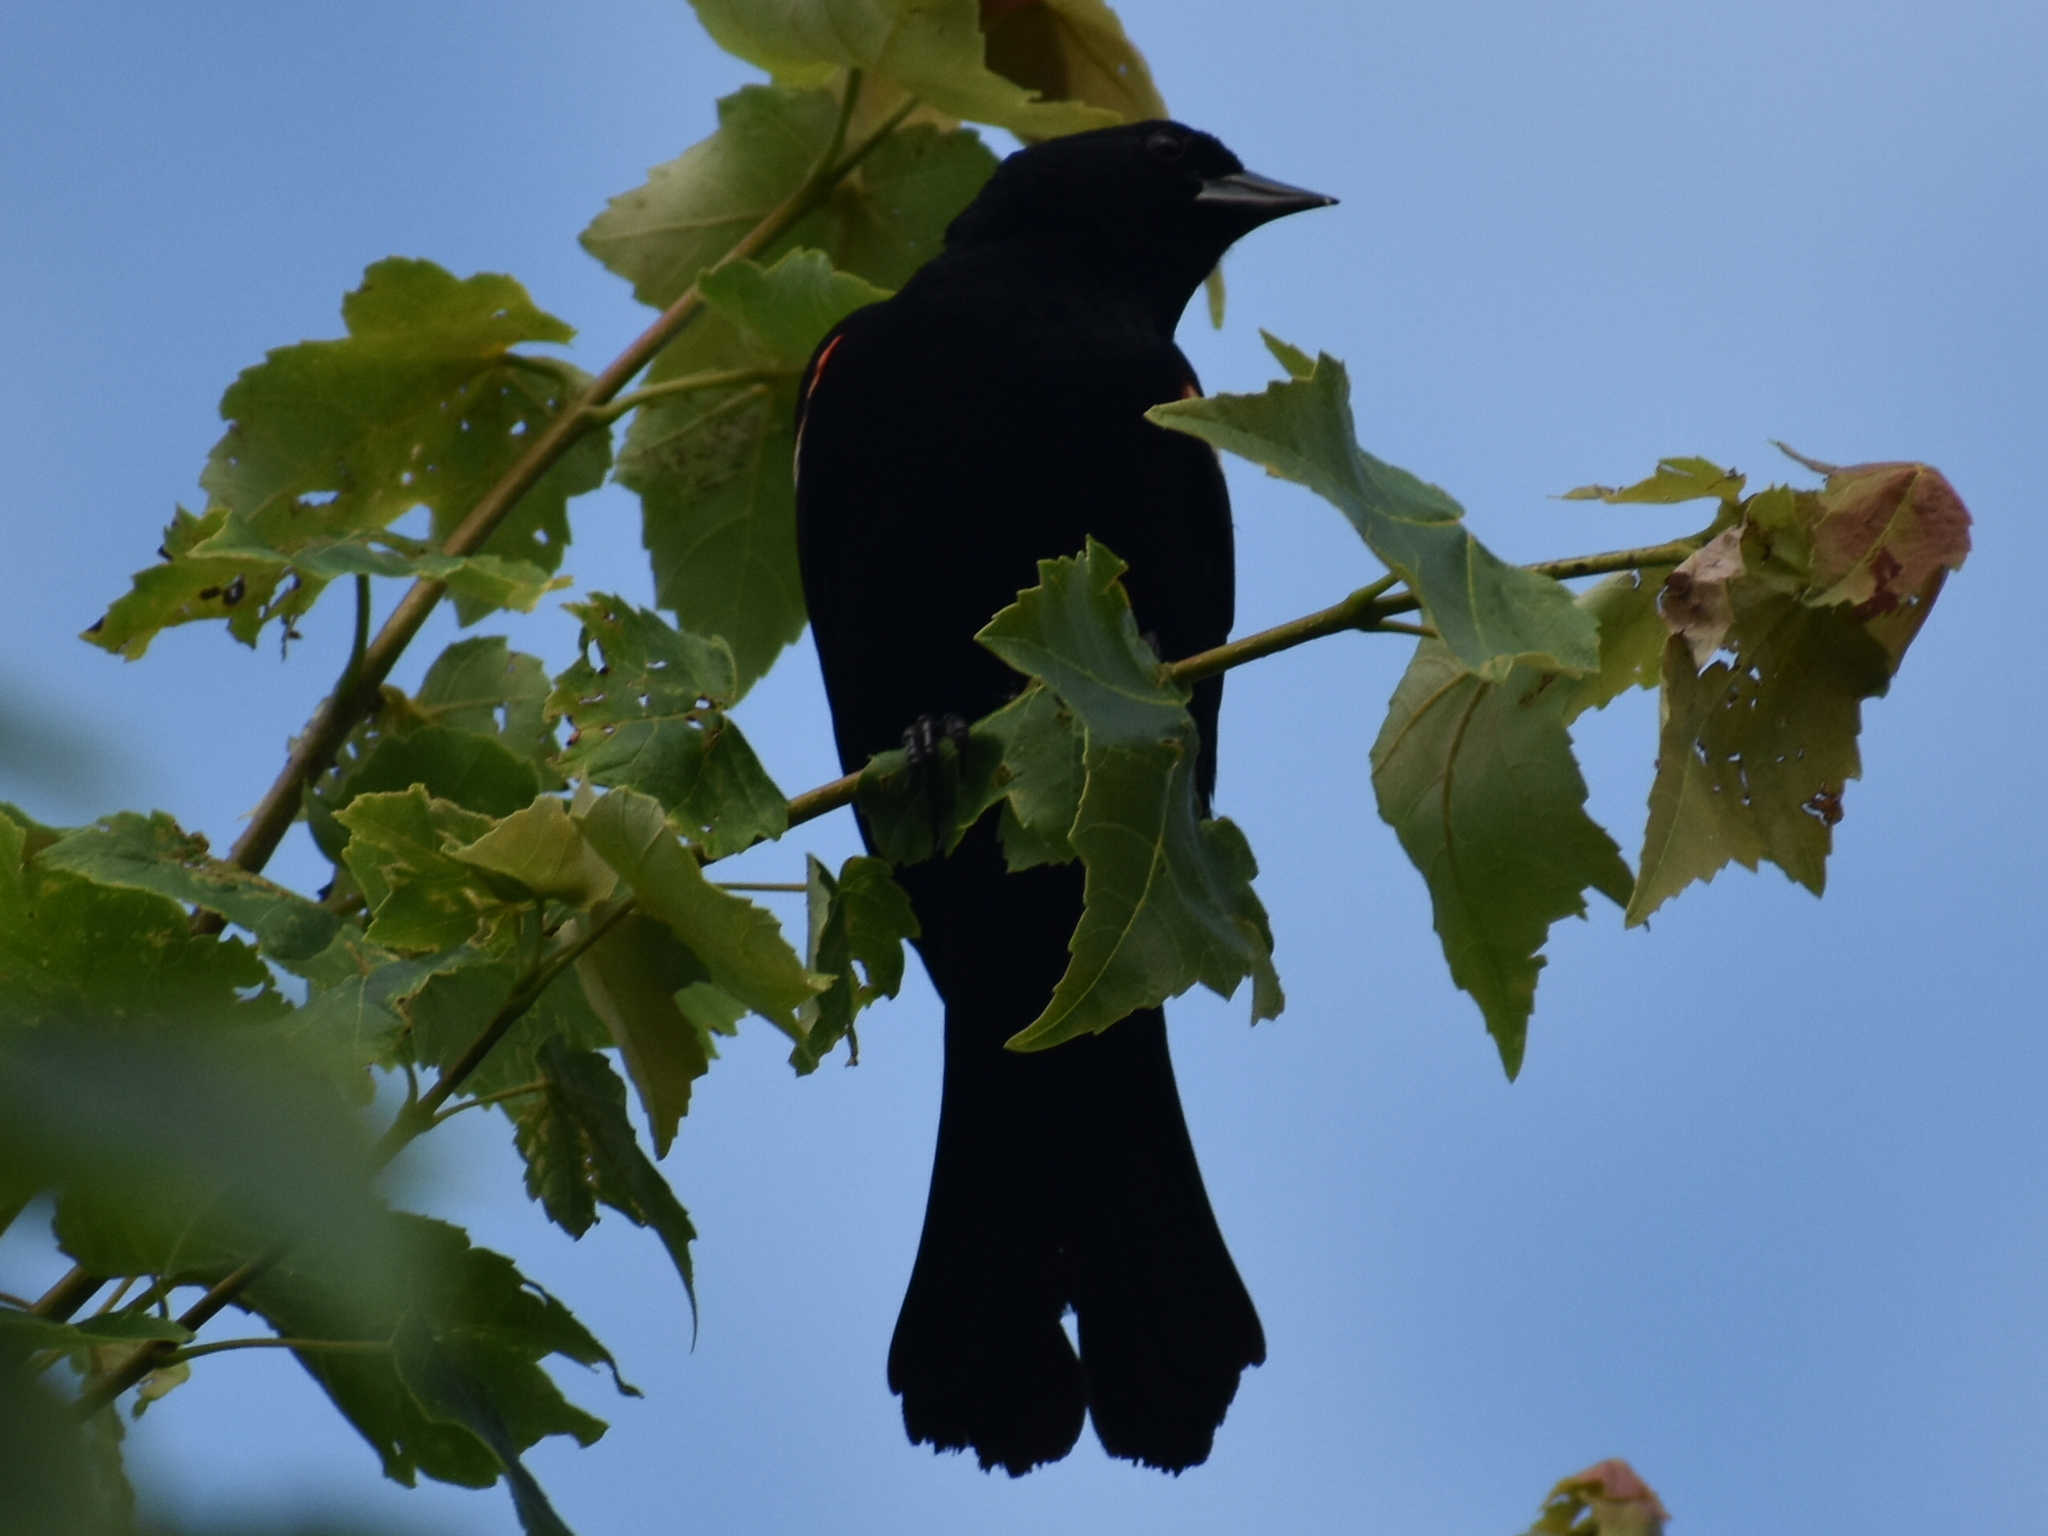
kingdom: Animalia
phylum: Chordata
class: Aves
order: Passeriformes
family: Icteridae
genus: Agelaius
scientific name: Agelaius phoeniceus
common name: Red-winged blackbird
